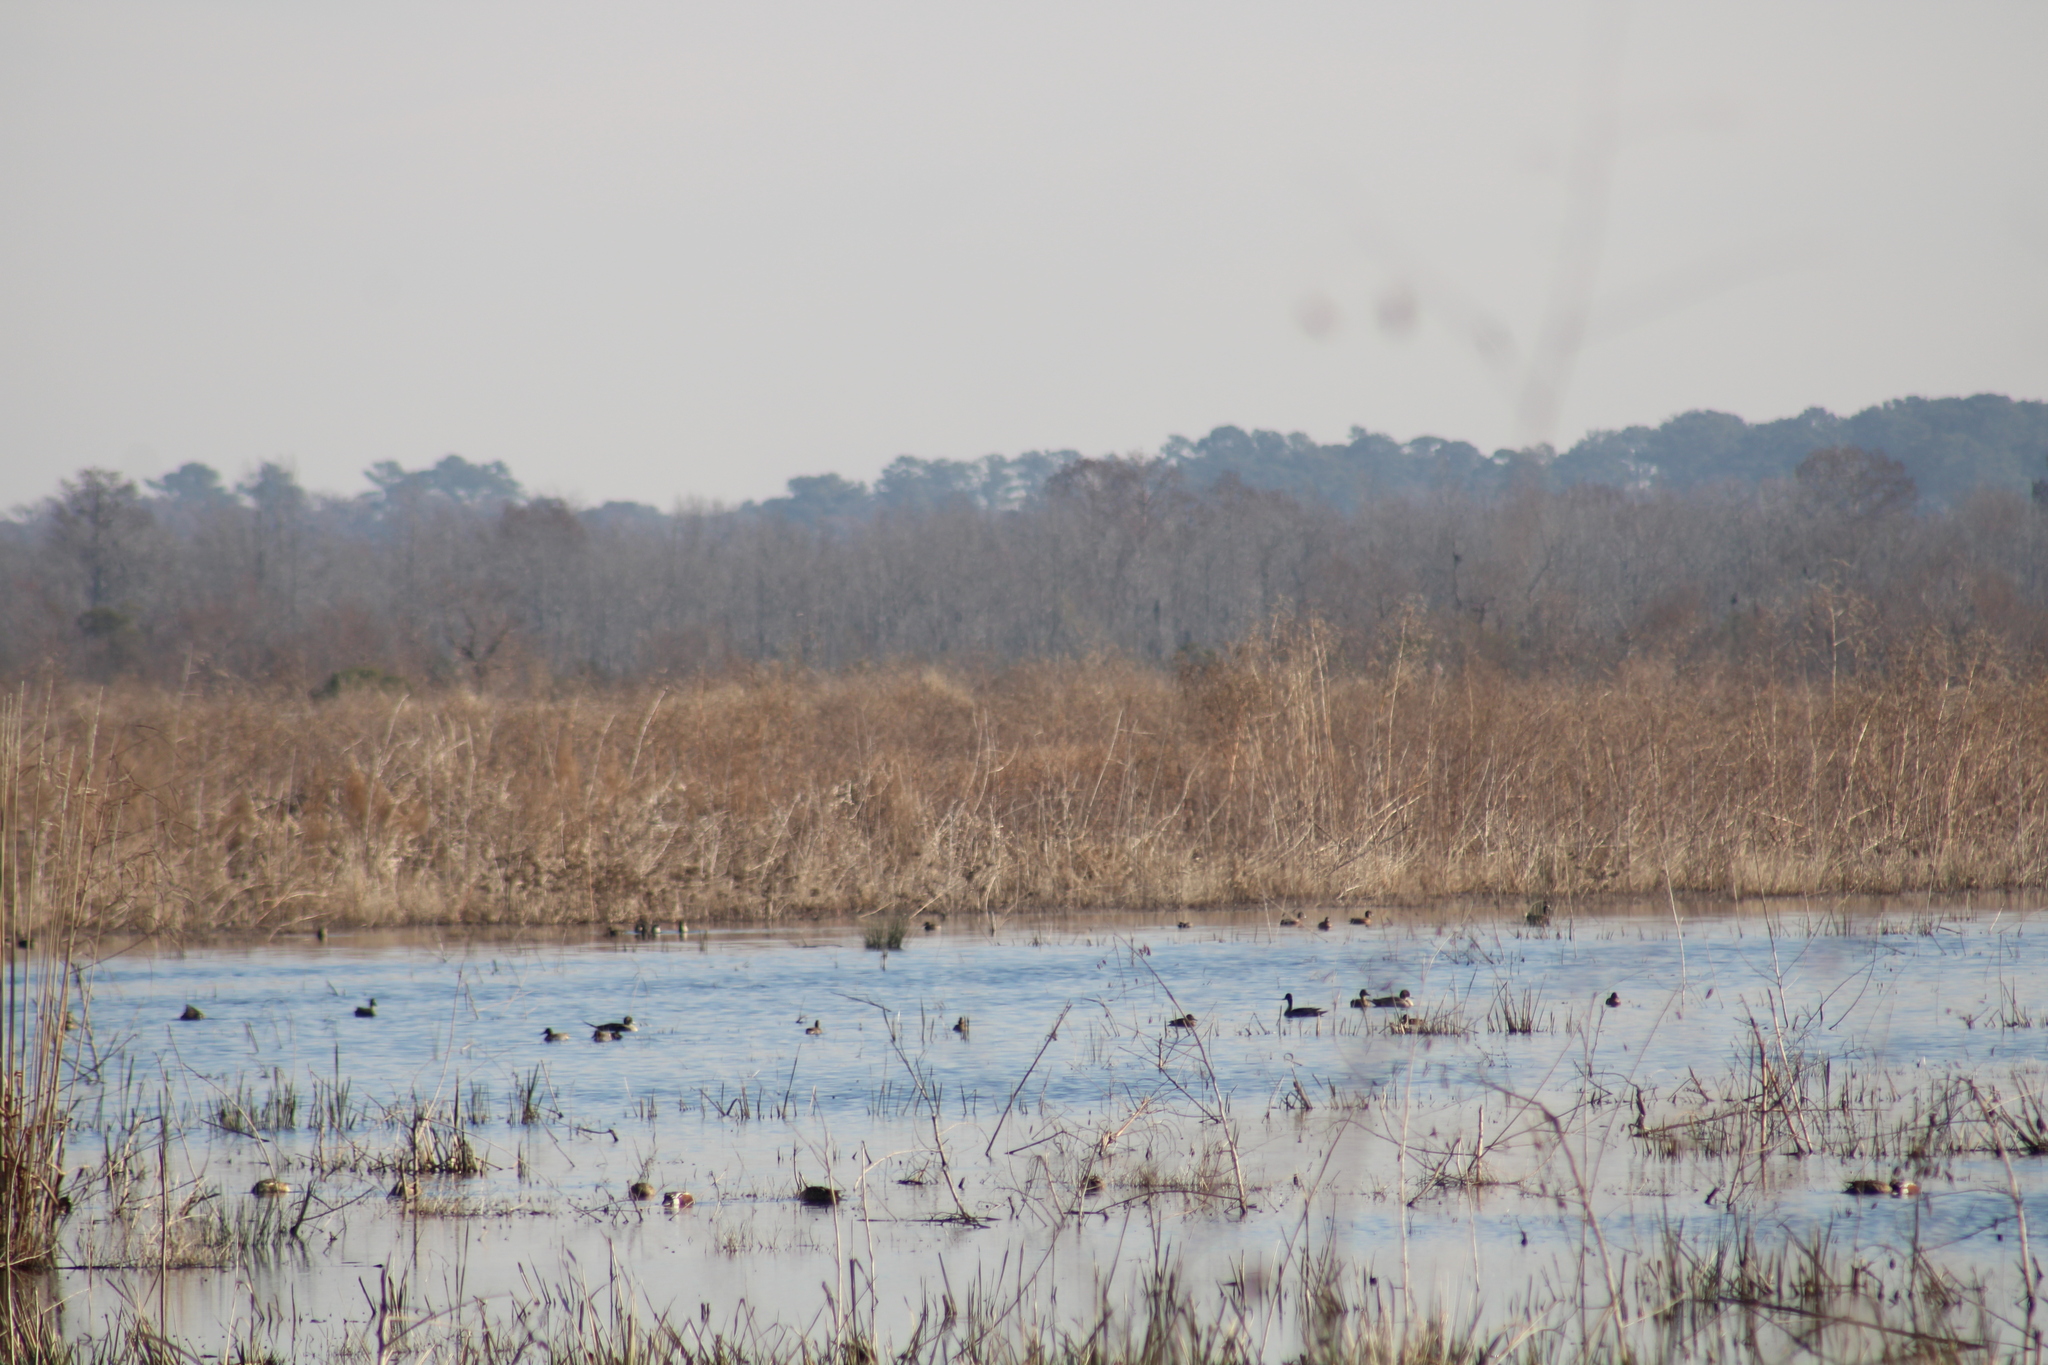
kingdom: Animalia
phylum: Chordata
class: Aves
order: Anseriformes
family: Anatidae
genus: Anas
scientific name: Anas acuta
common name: Northern pintail
